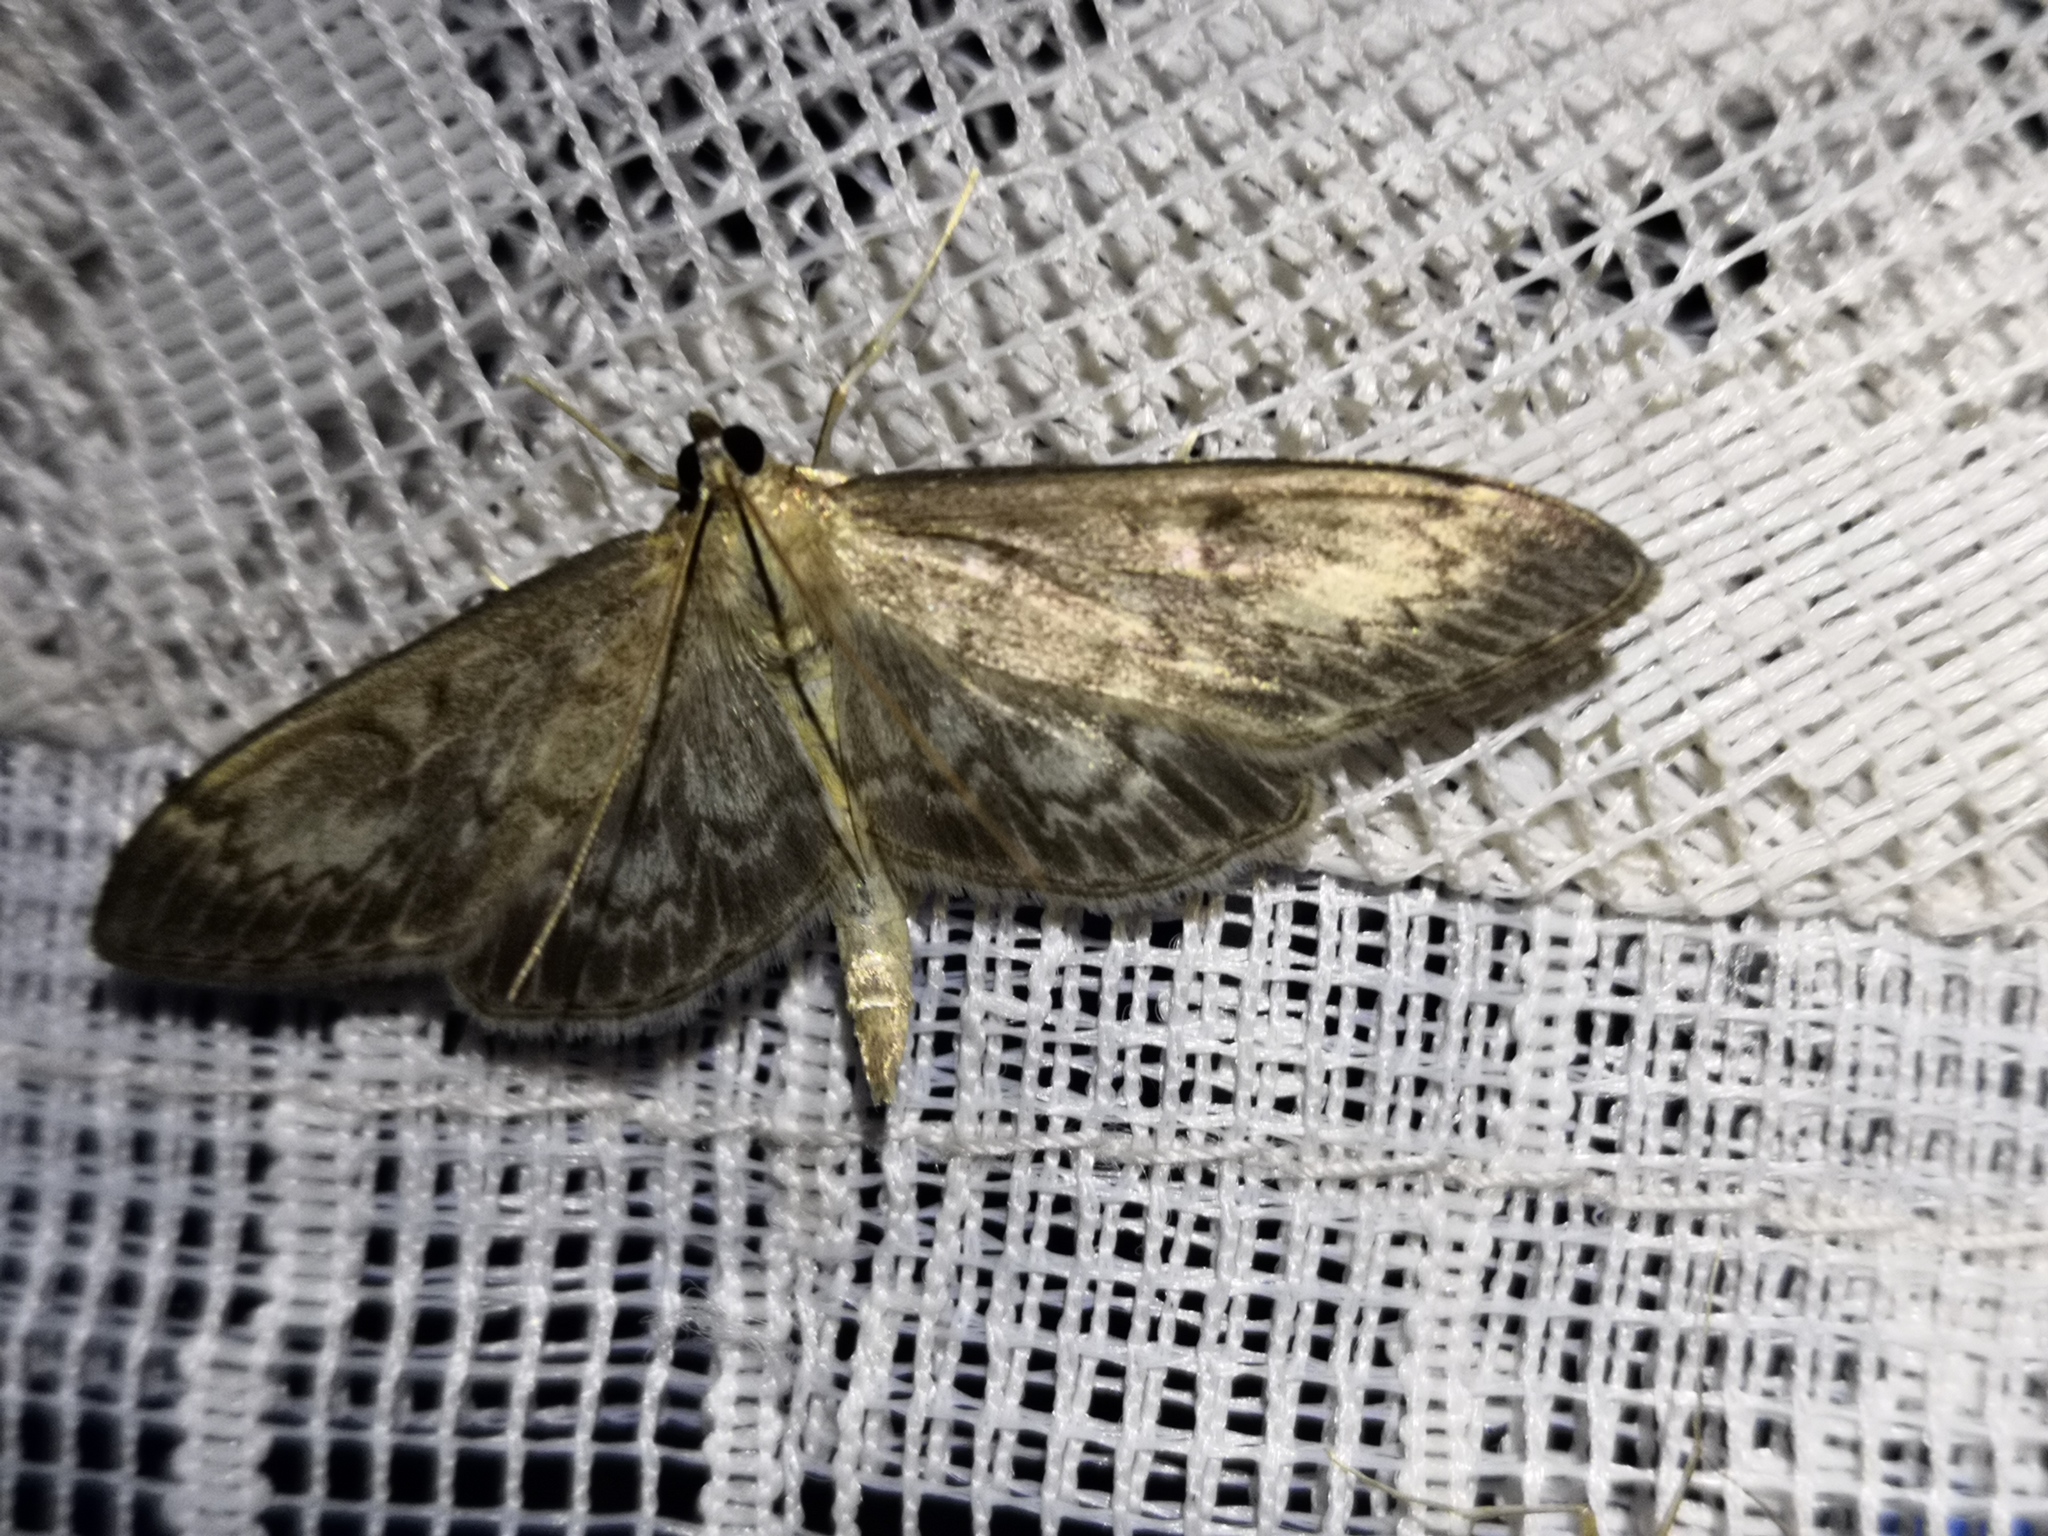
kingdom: Animalia
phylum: Arthropoda
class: Insecta
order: Lepidoptera
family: Crambidae
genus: Anania
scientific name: Anania lancealis
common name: Long-winged pearl
